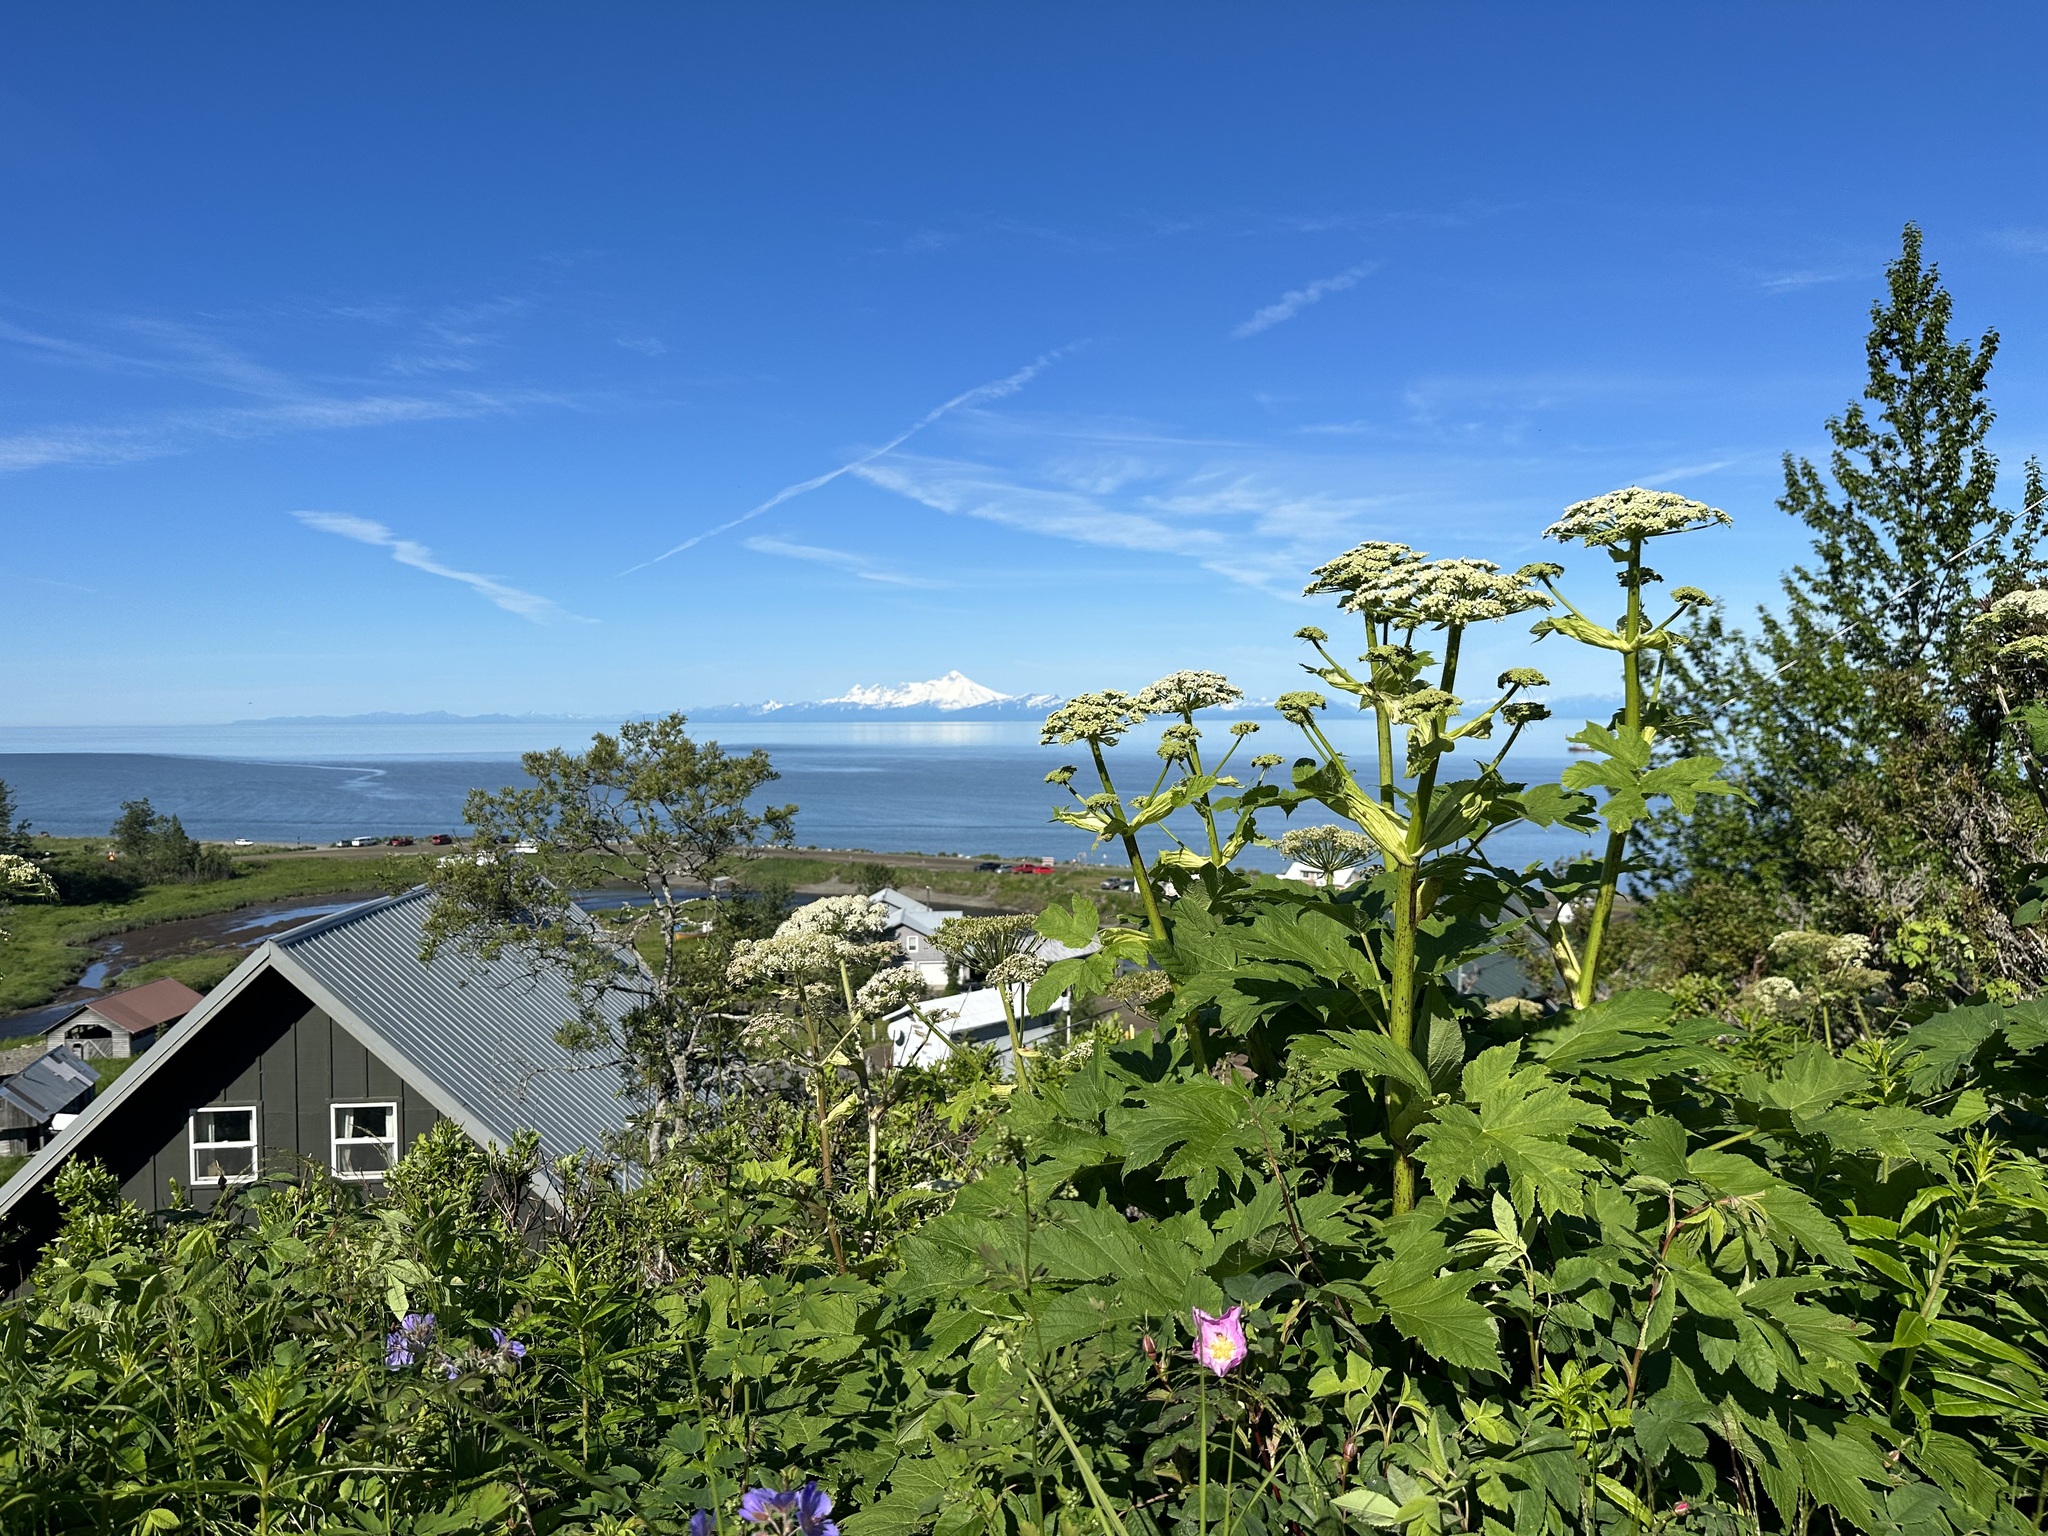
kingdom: Plantae
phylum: Tracheophyta
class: Magnoliopsida
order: Apiales
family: Apiaceae
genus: Heracleum
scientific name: Heracleum maximum
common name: American cow parsnip
